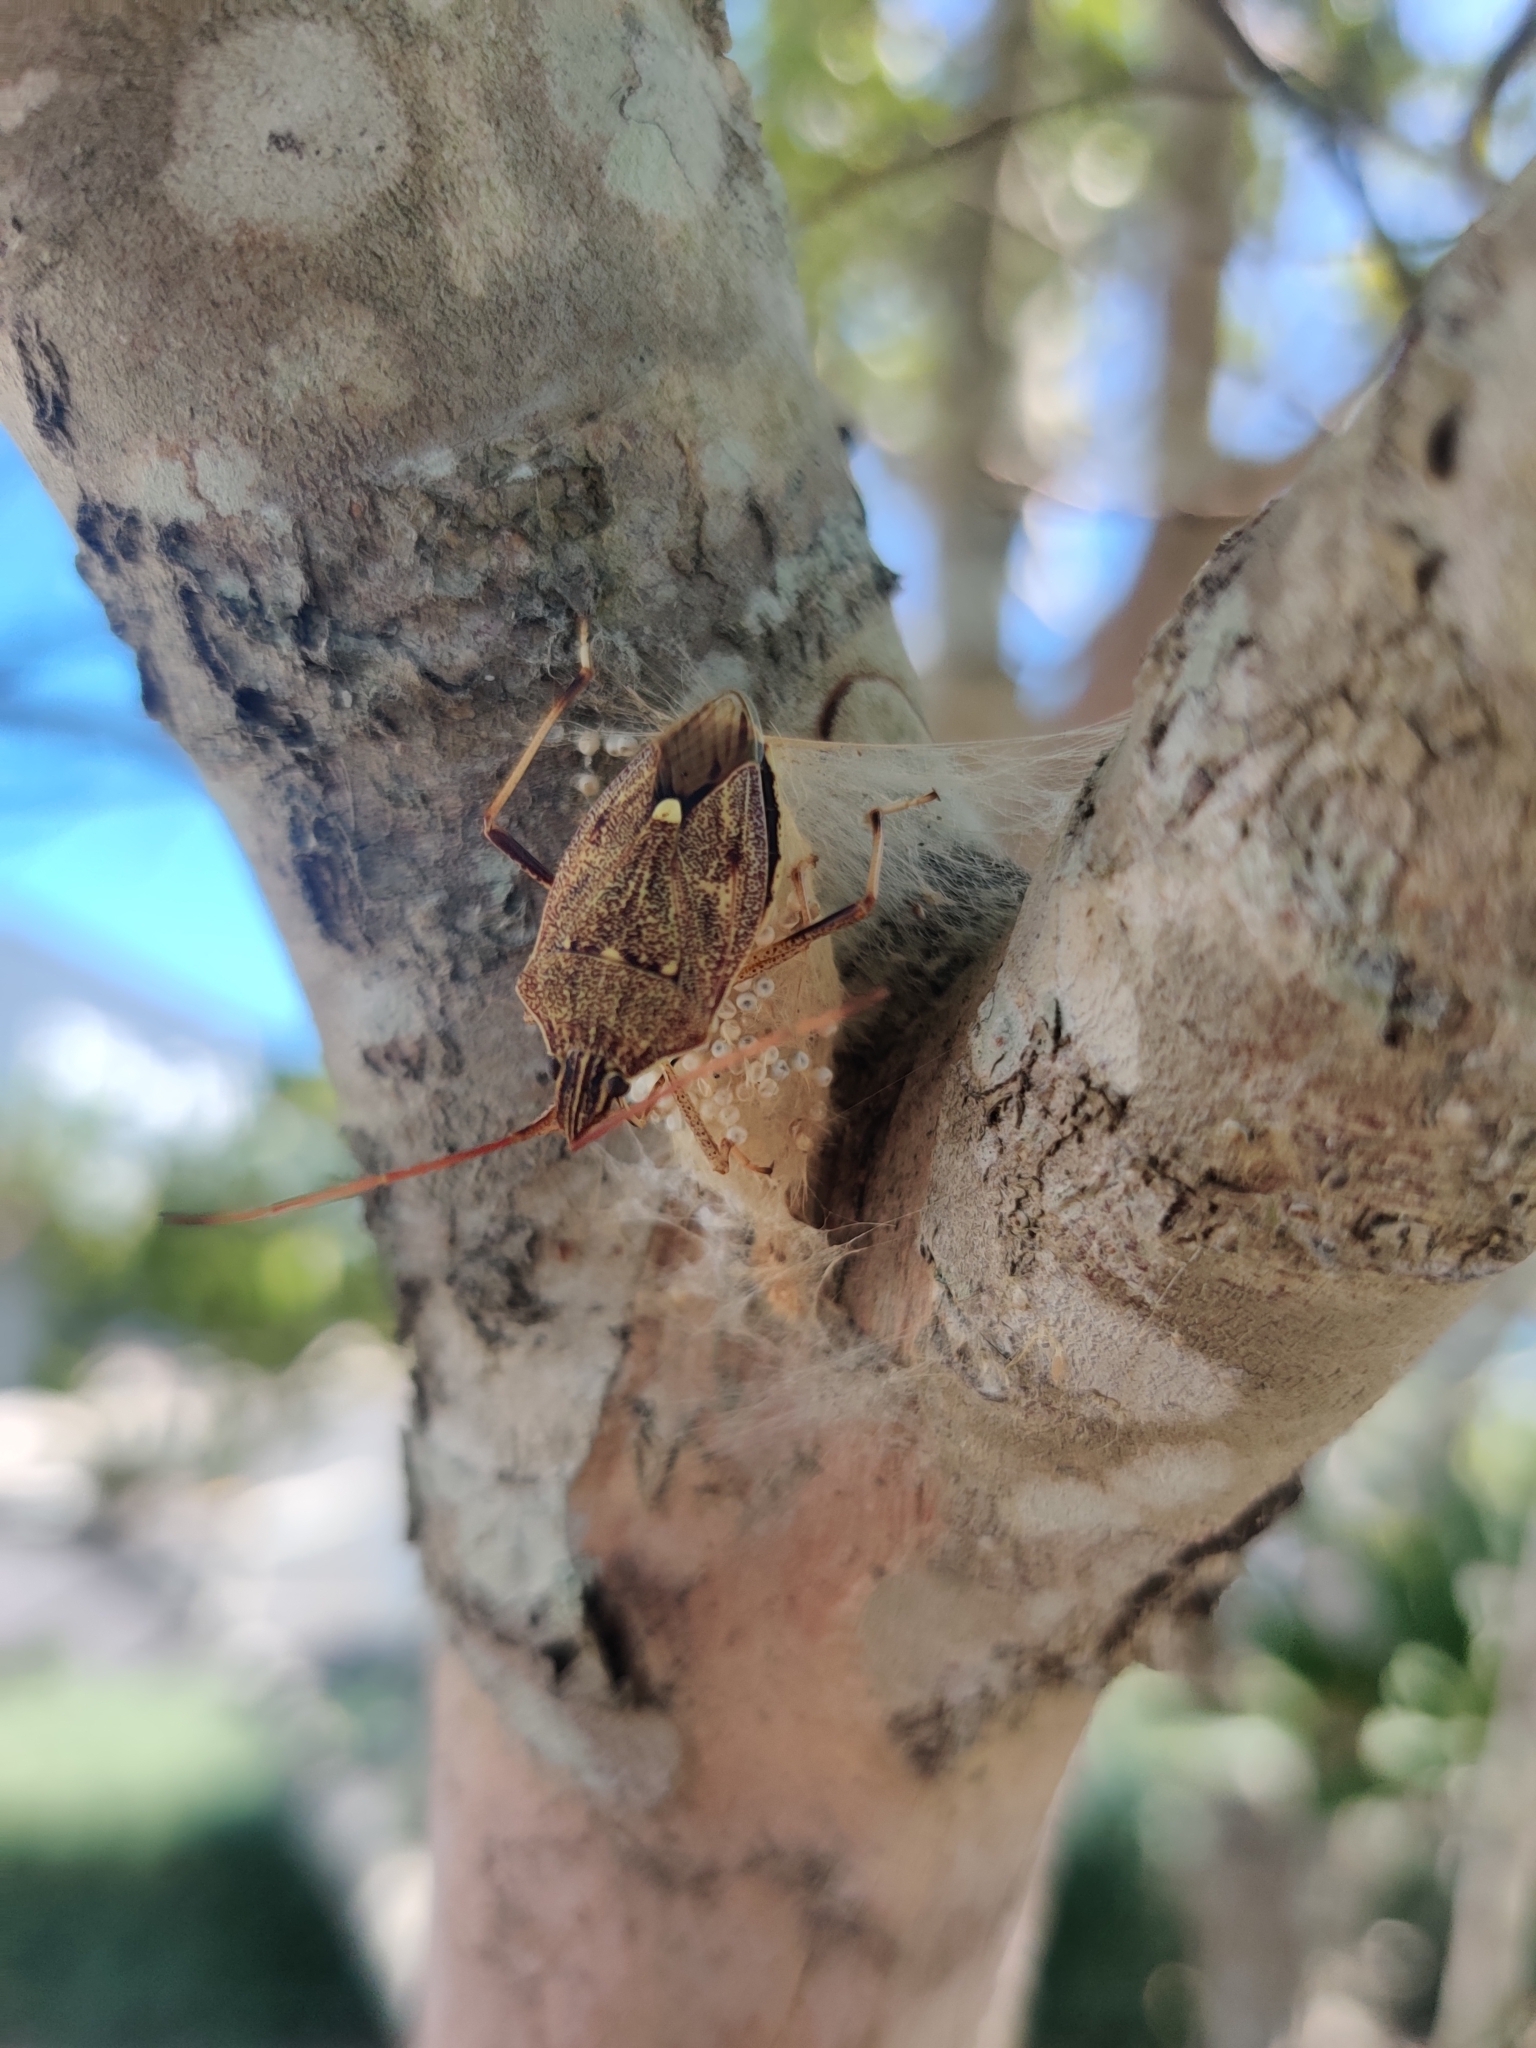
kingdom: Animalia
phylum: Arthropoda
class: Insecta
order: Hemiptera
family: Pentatomidae
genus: Poecilometis
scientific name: Poecilometis
